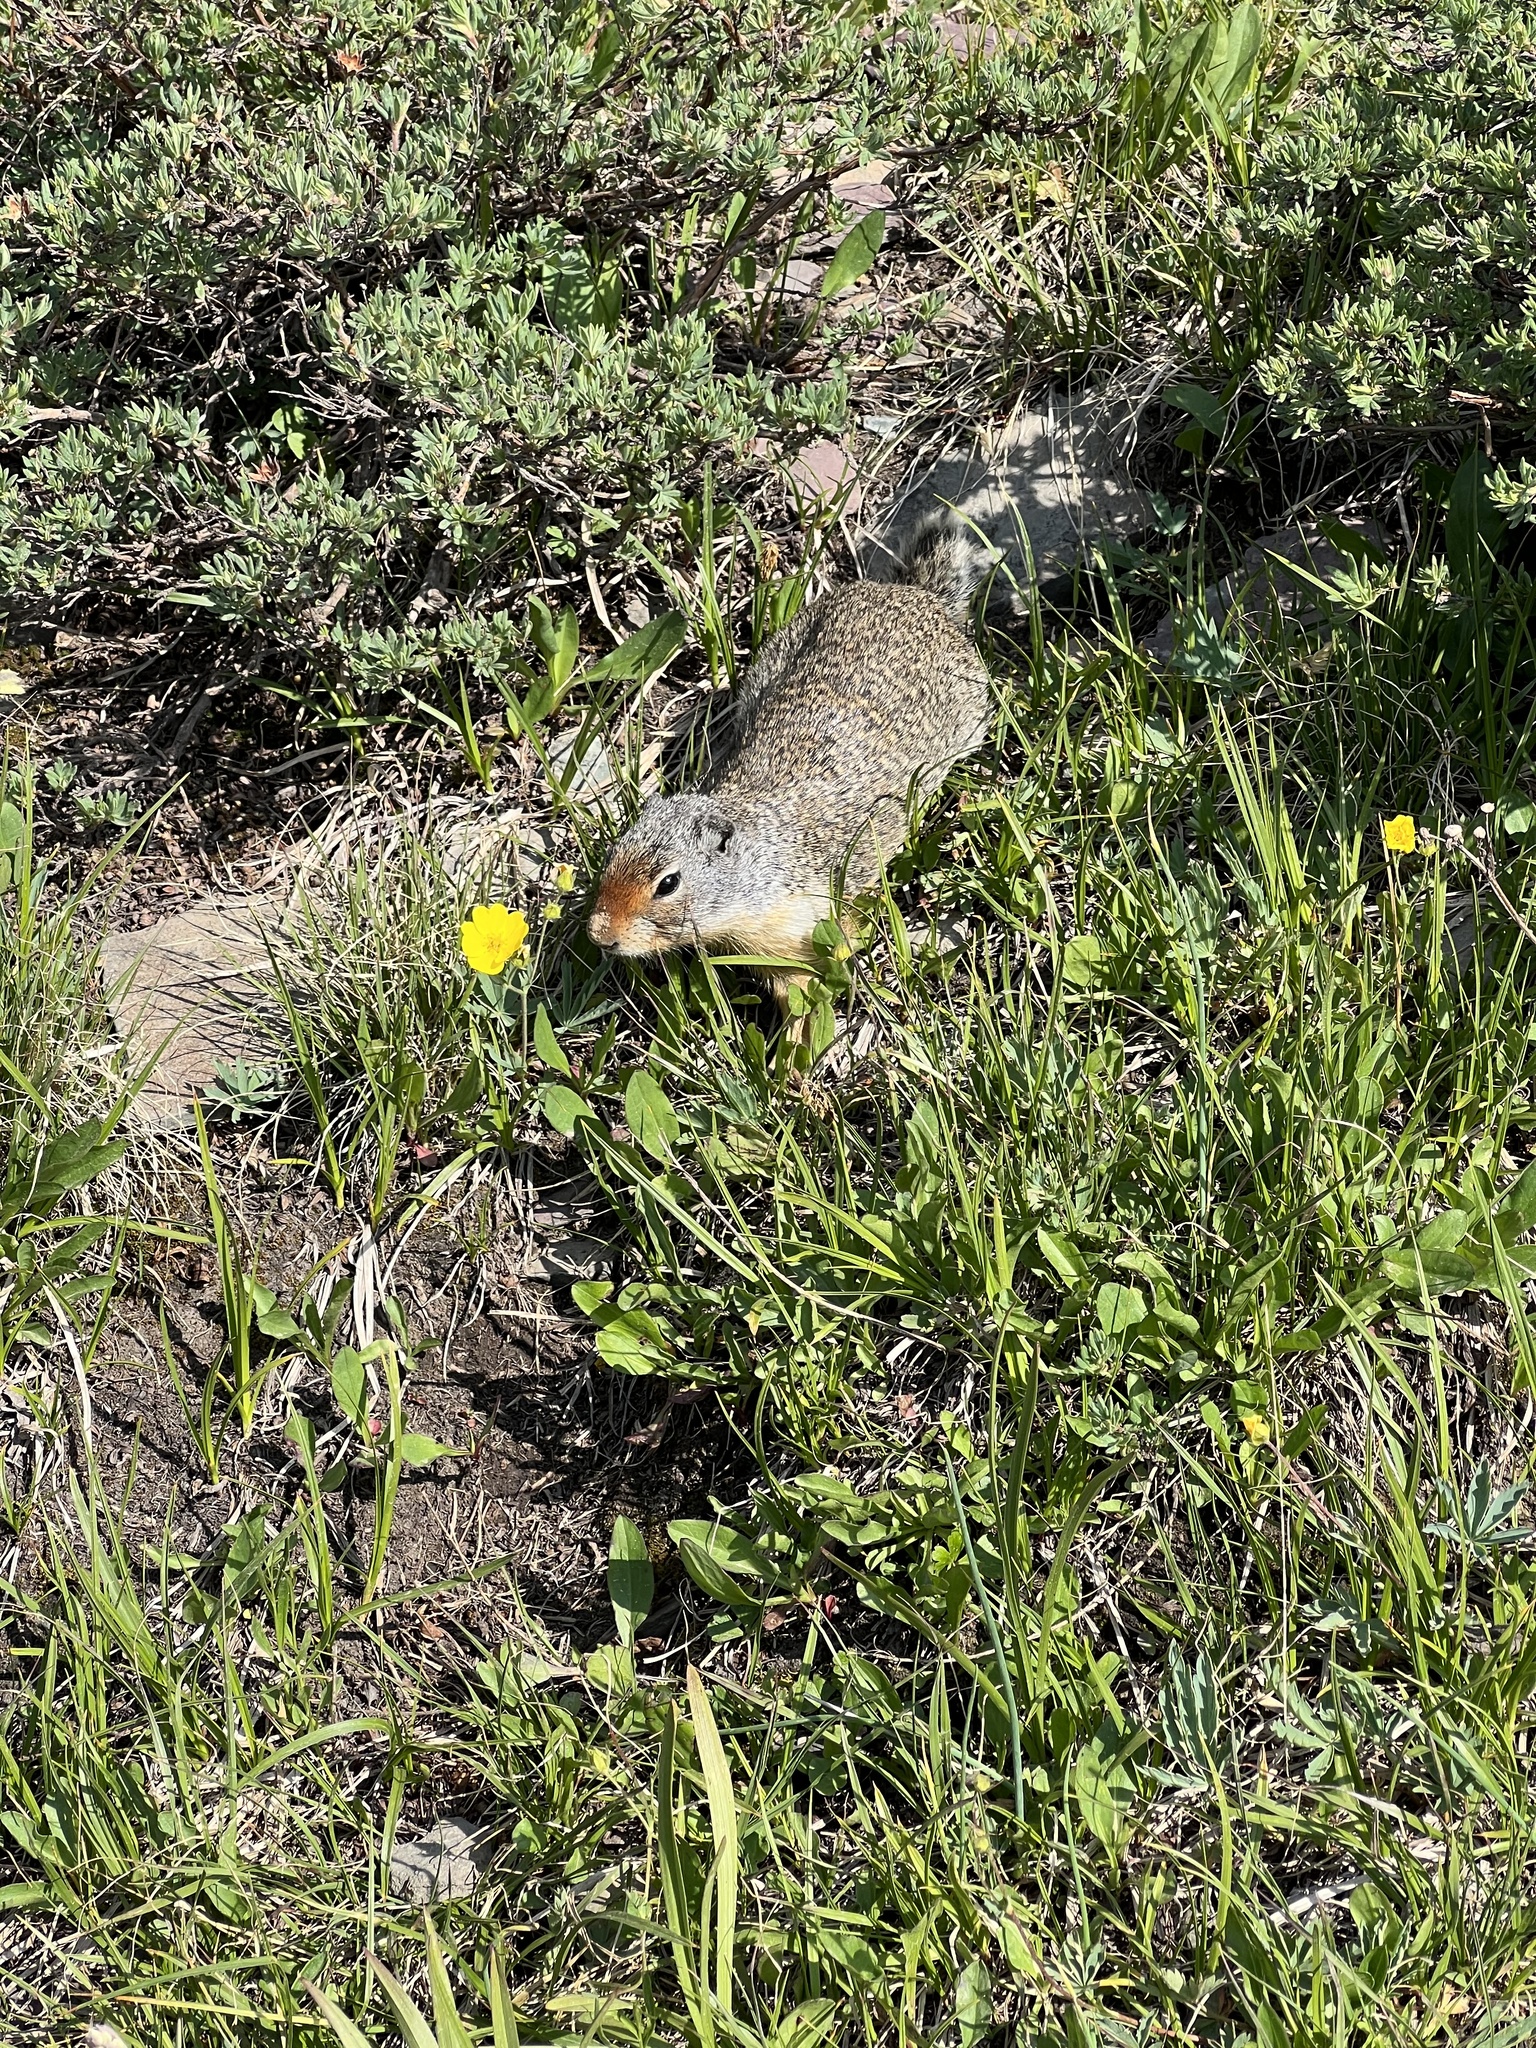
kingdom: Animalia
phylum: Chordata
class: Mammalia
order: Rodentia
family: Sciuridae
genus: Urocitellus
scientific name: Urocitellus columbianus
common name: Columbian ground squirrel
